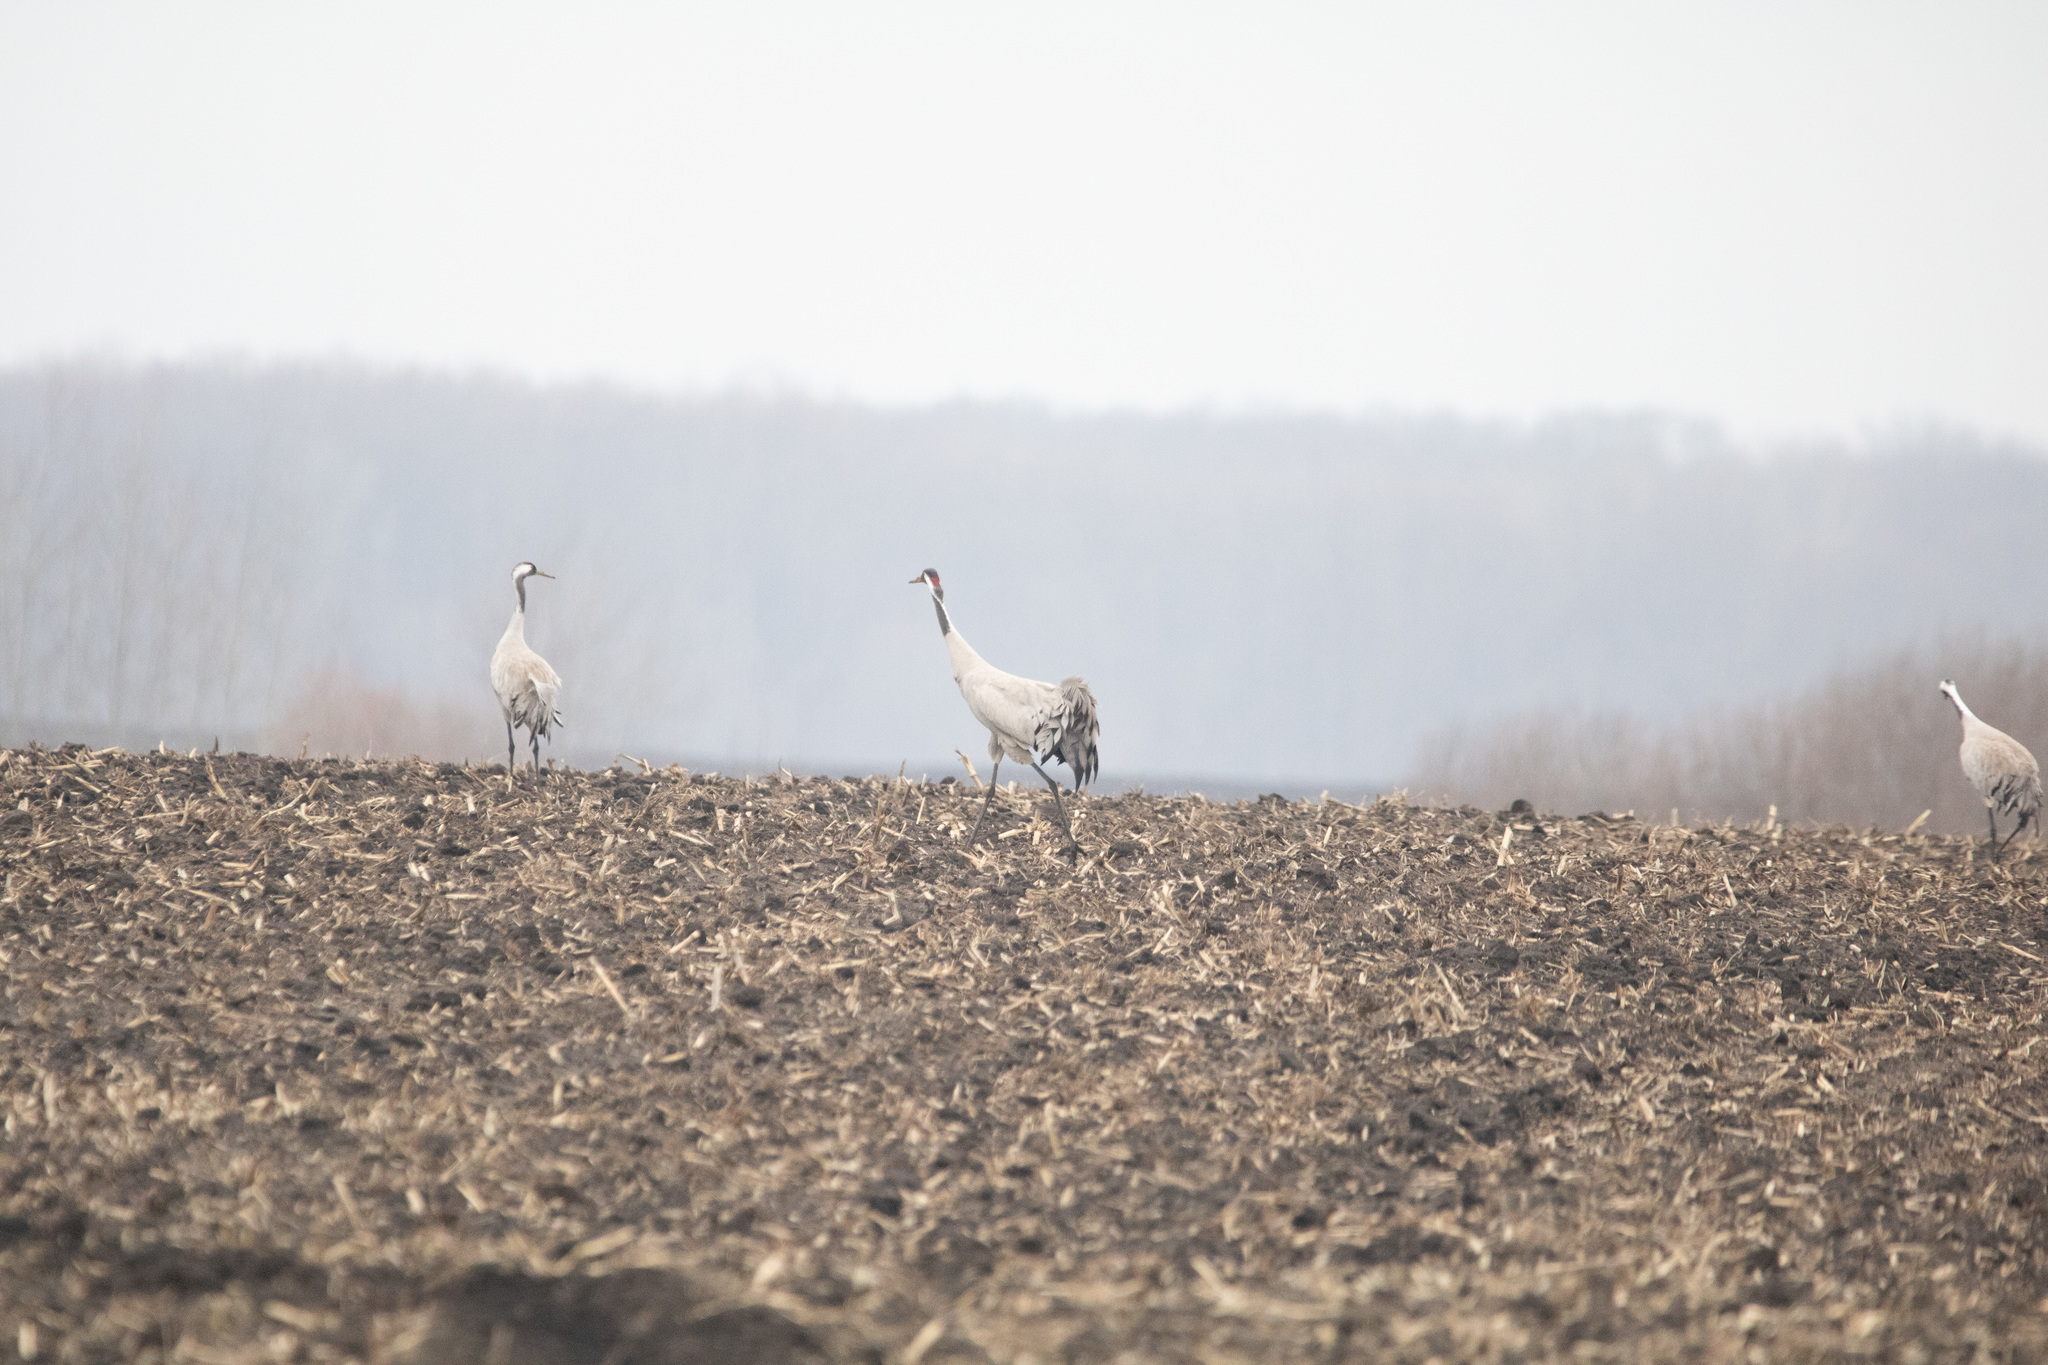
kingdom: Animalia
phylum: Chordata
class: Aves
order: Gruiformes
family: Gruidae
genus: Grus
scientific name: Grus grus
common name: Common crane
